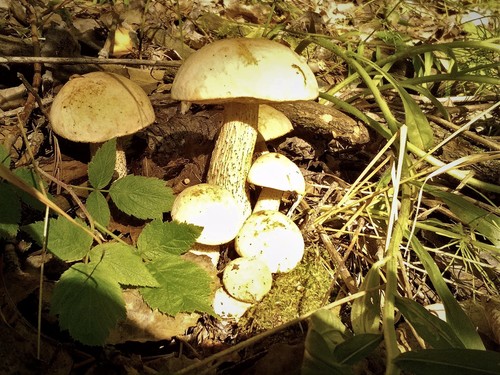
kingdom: Fungi
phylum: Basidiomycota
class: Agaricomycetes
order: Boletales
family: Boletaceae
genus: Leccinum
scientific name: Leccinum scabrum
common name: Blushing bolete
